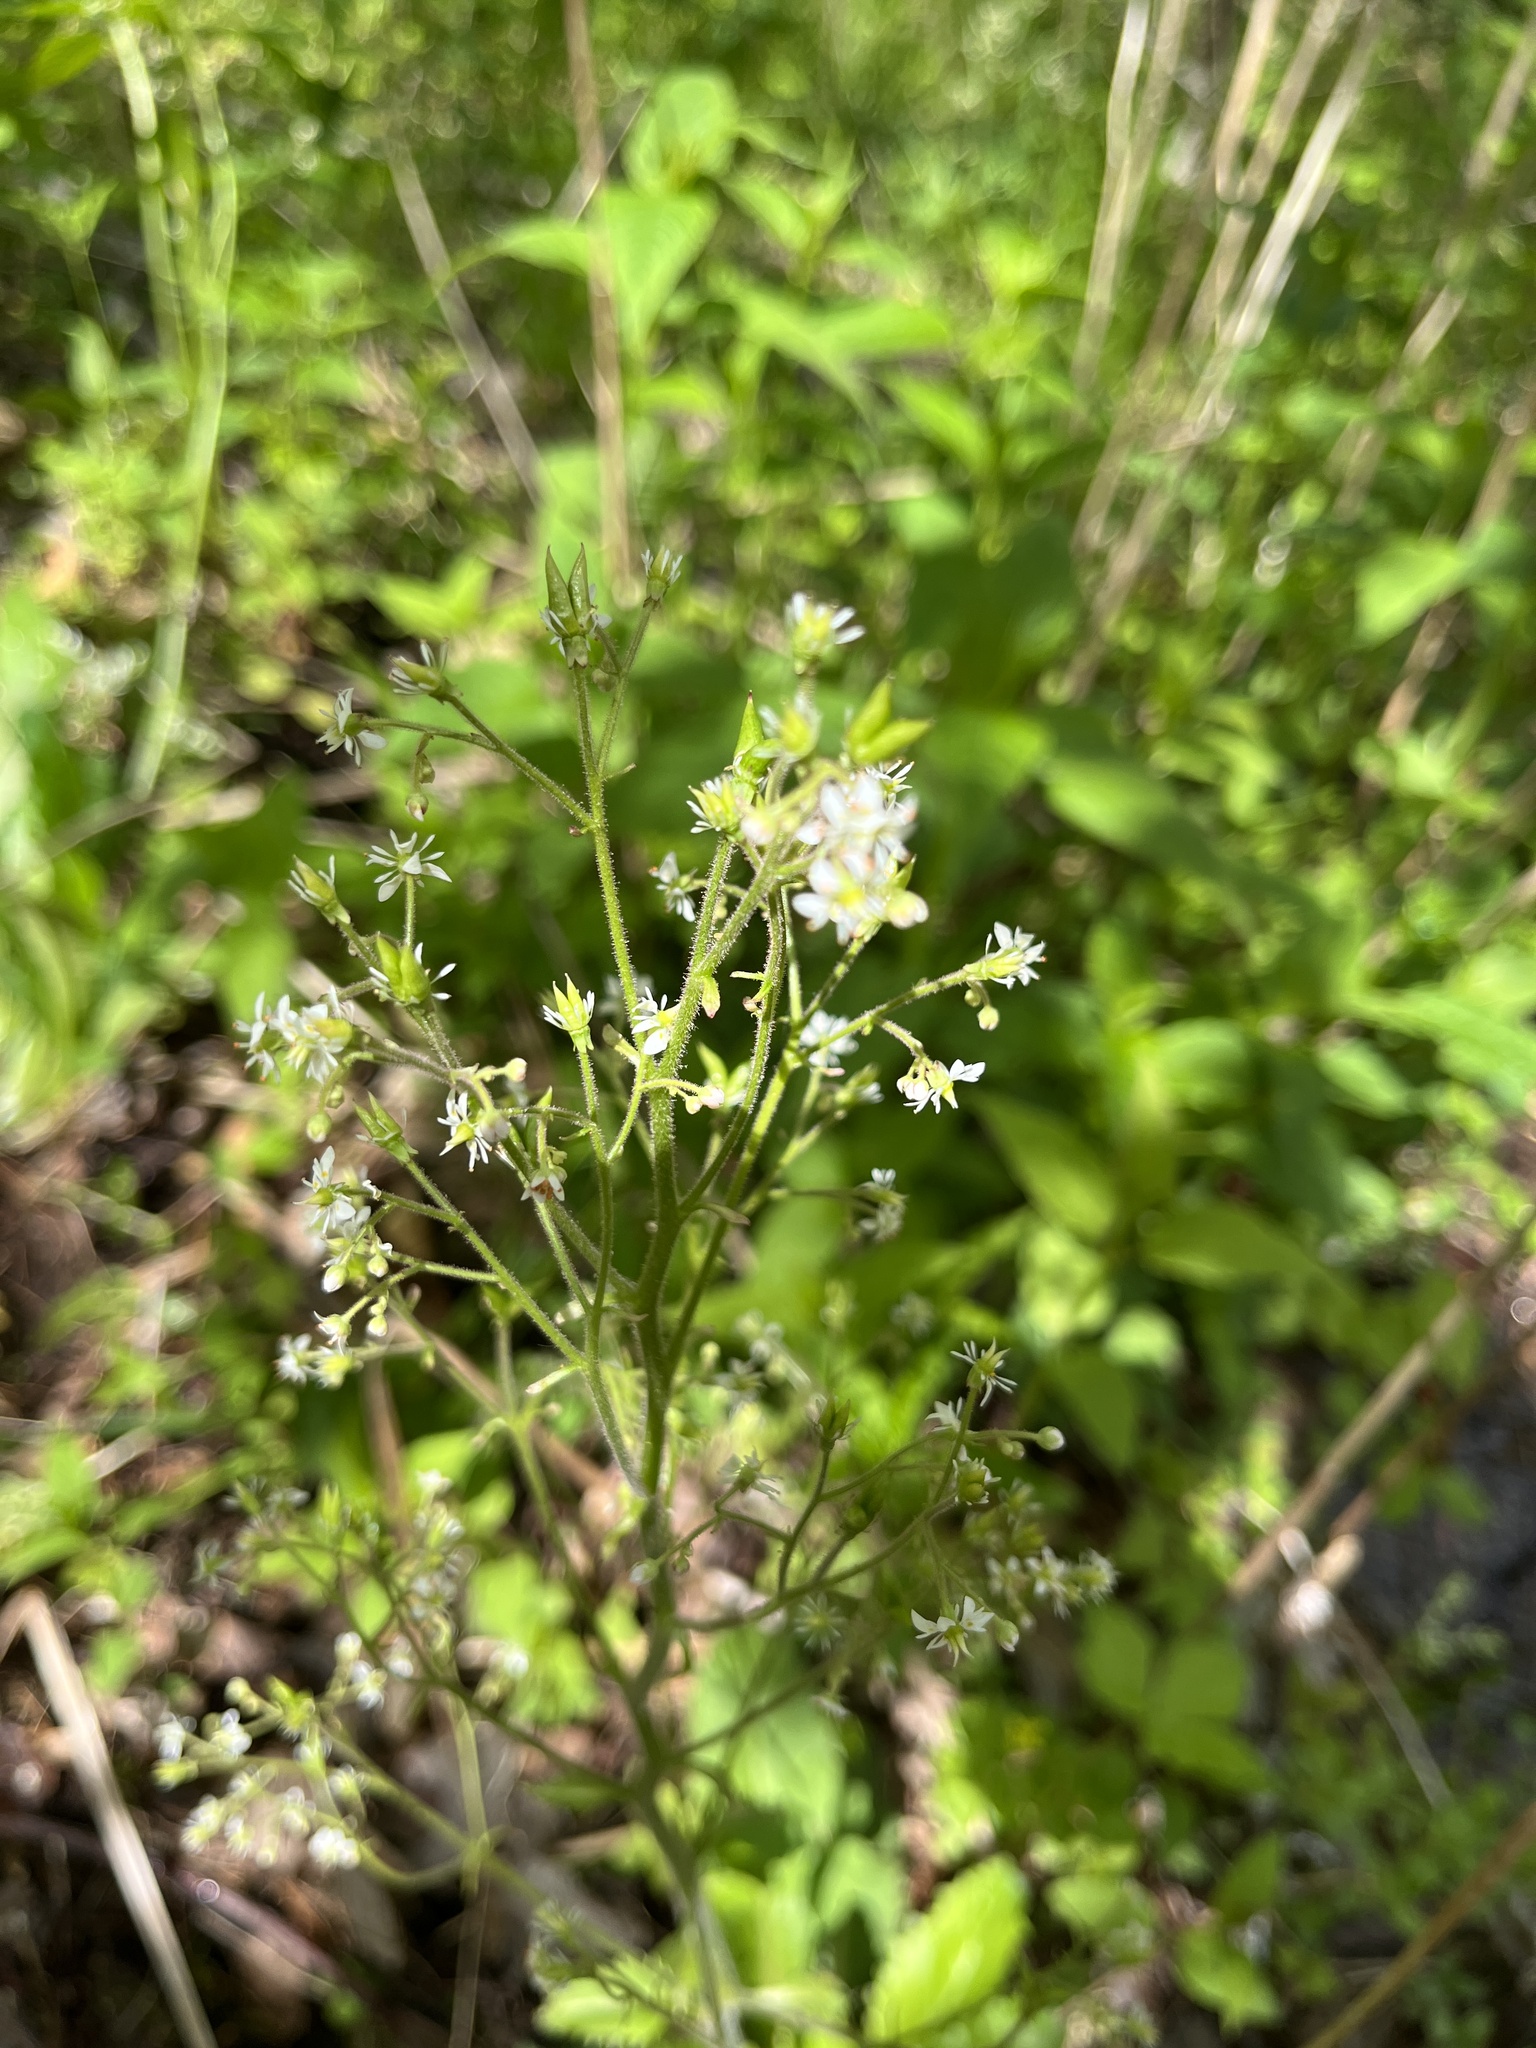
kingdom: Plantae
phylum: Tracheophyta
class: Magnoliopsida
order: Saxifragales
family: Saxifragaceae
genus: Micranthes
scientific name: Micranthes micranthidifolia
